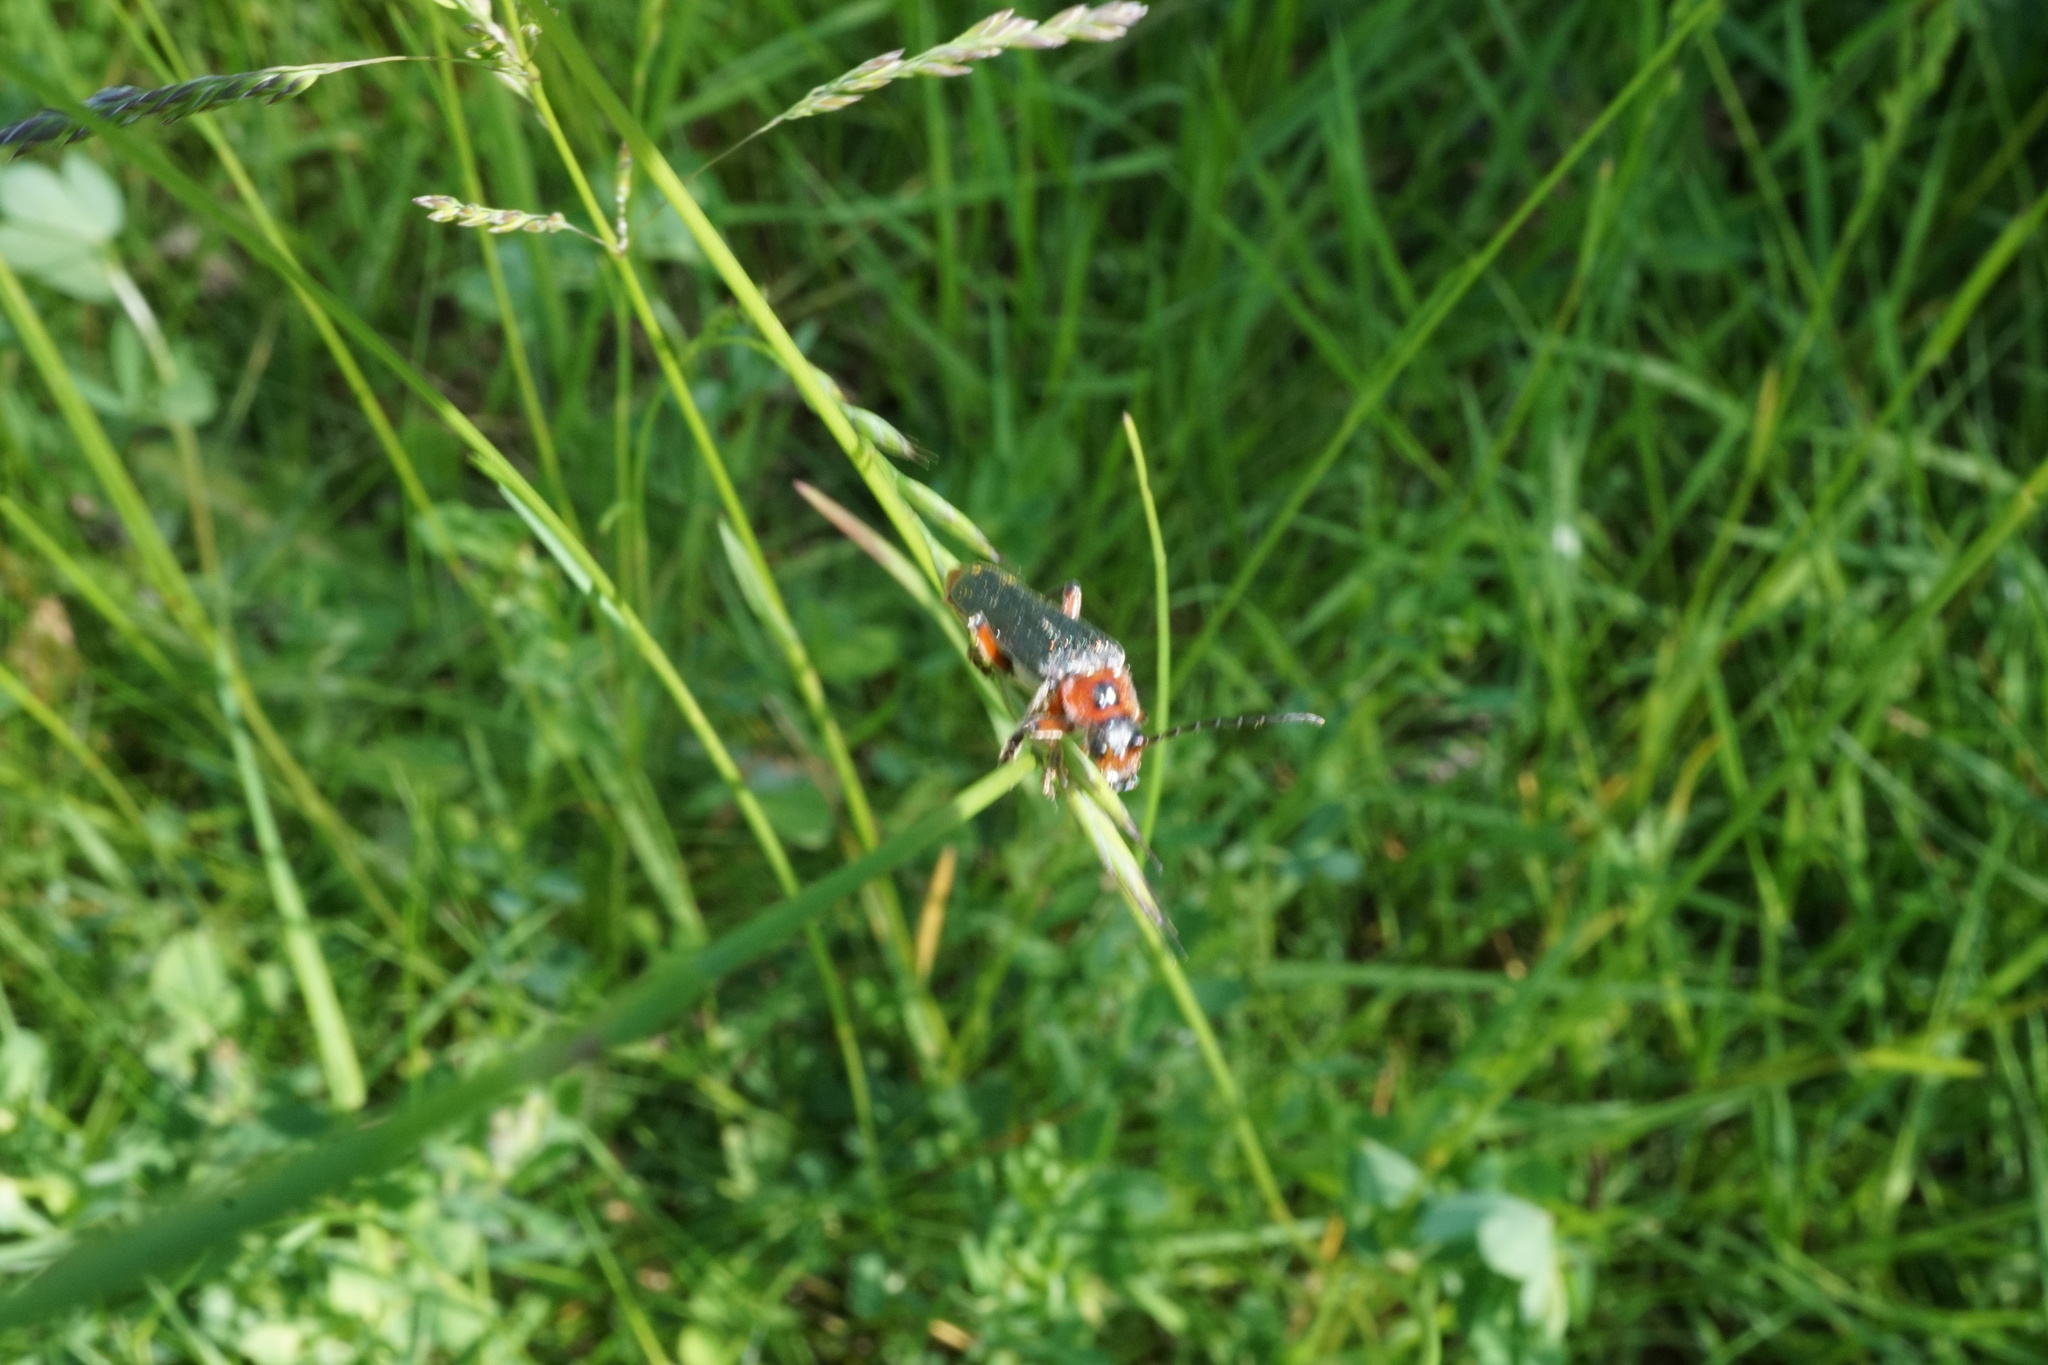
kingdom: Animalia
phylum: Arthropoda
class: Insecta
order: Coleoptera
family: Cantharidae
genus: Cantharis
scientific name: Cantharis rustica
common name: Soldier beetle
